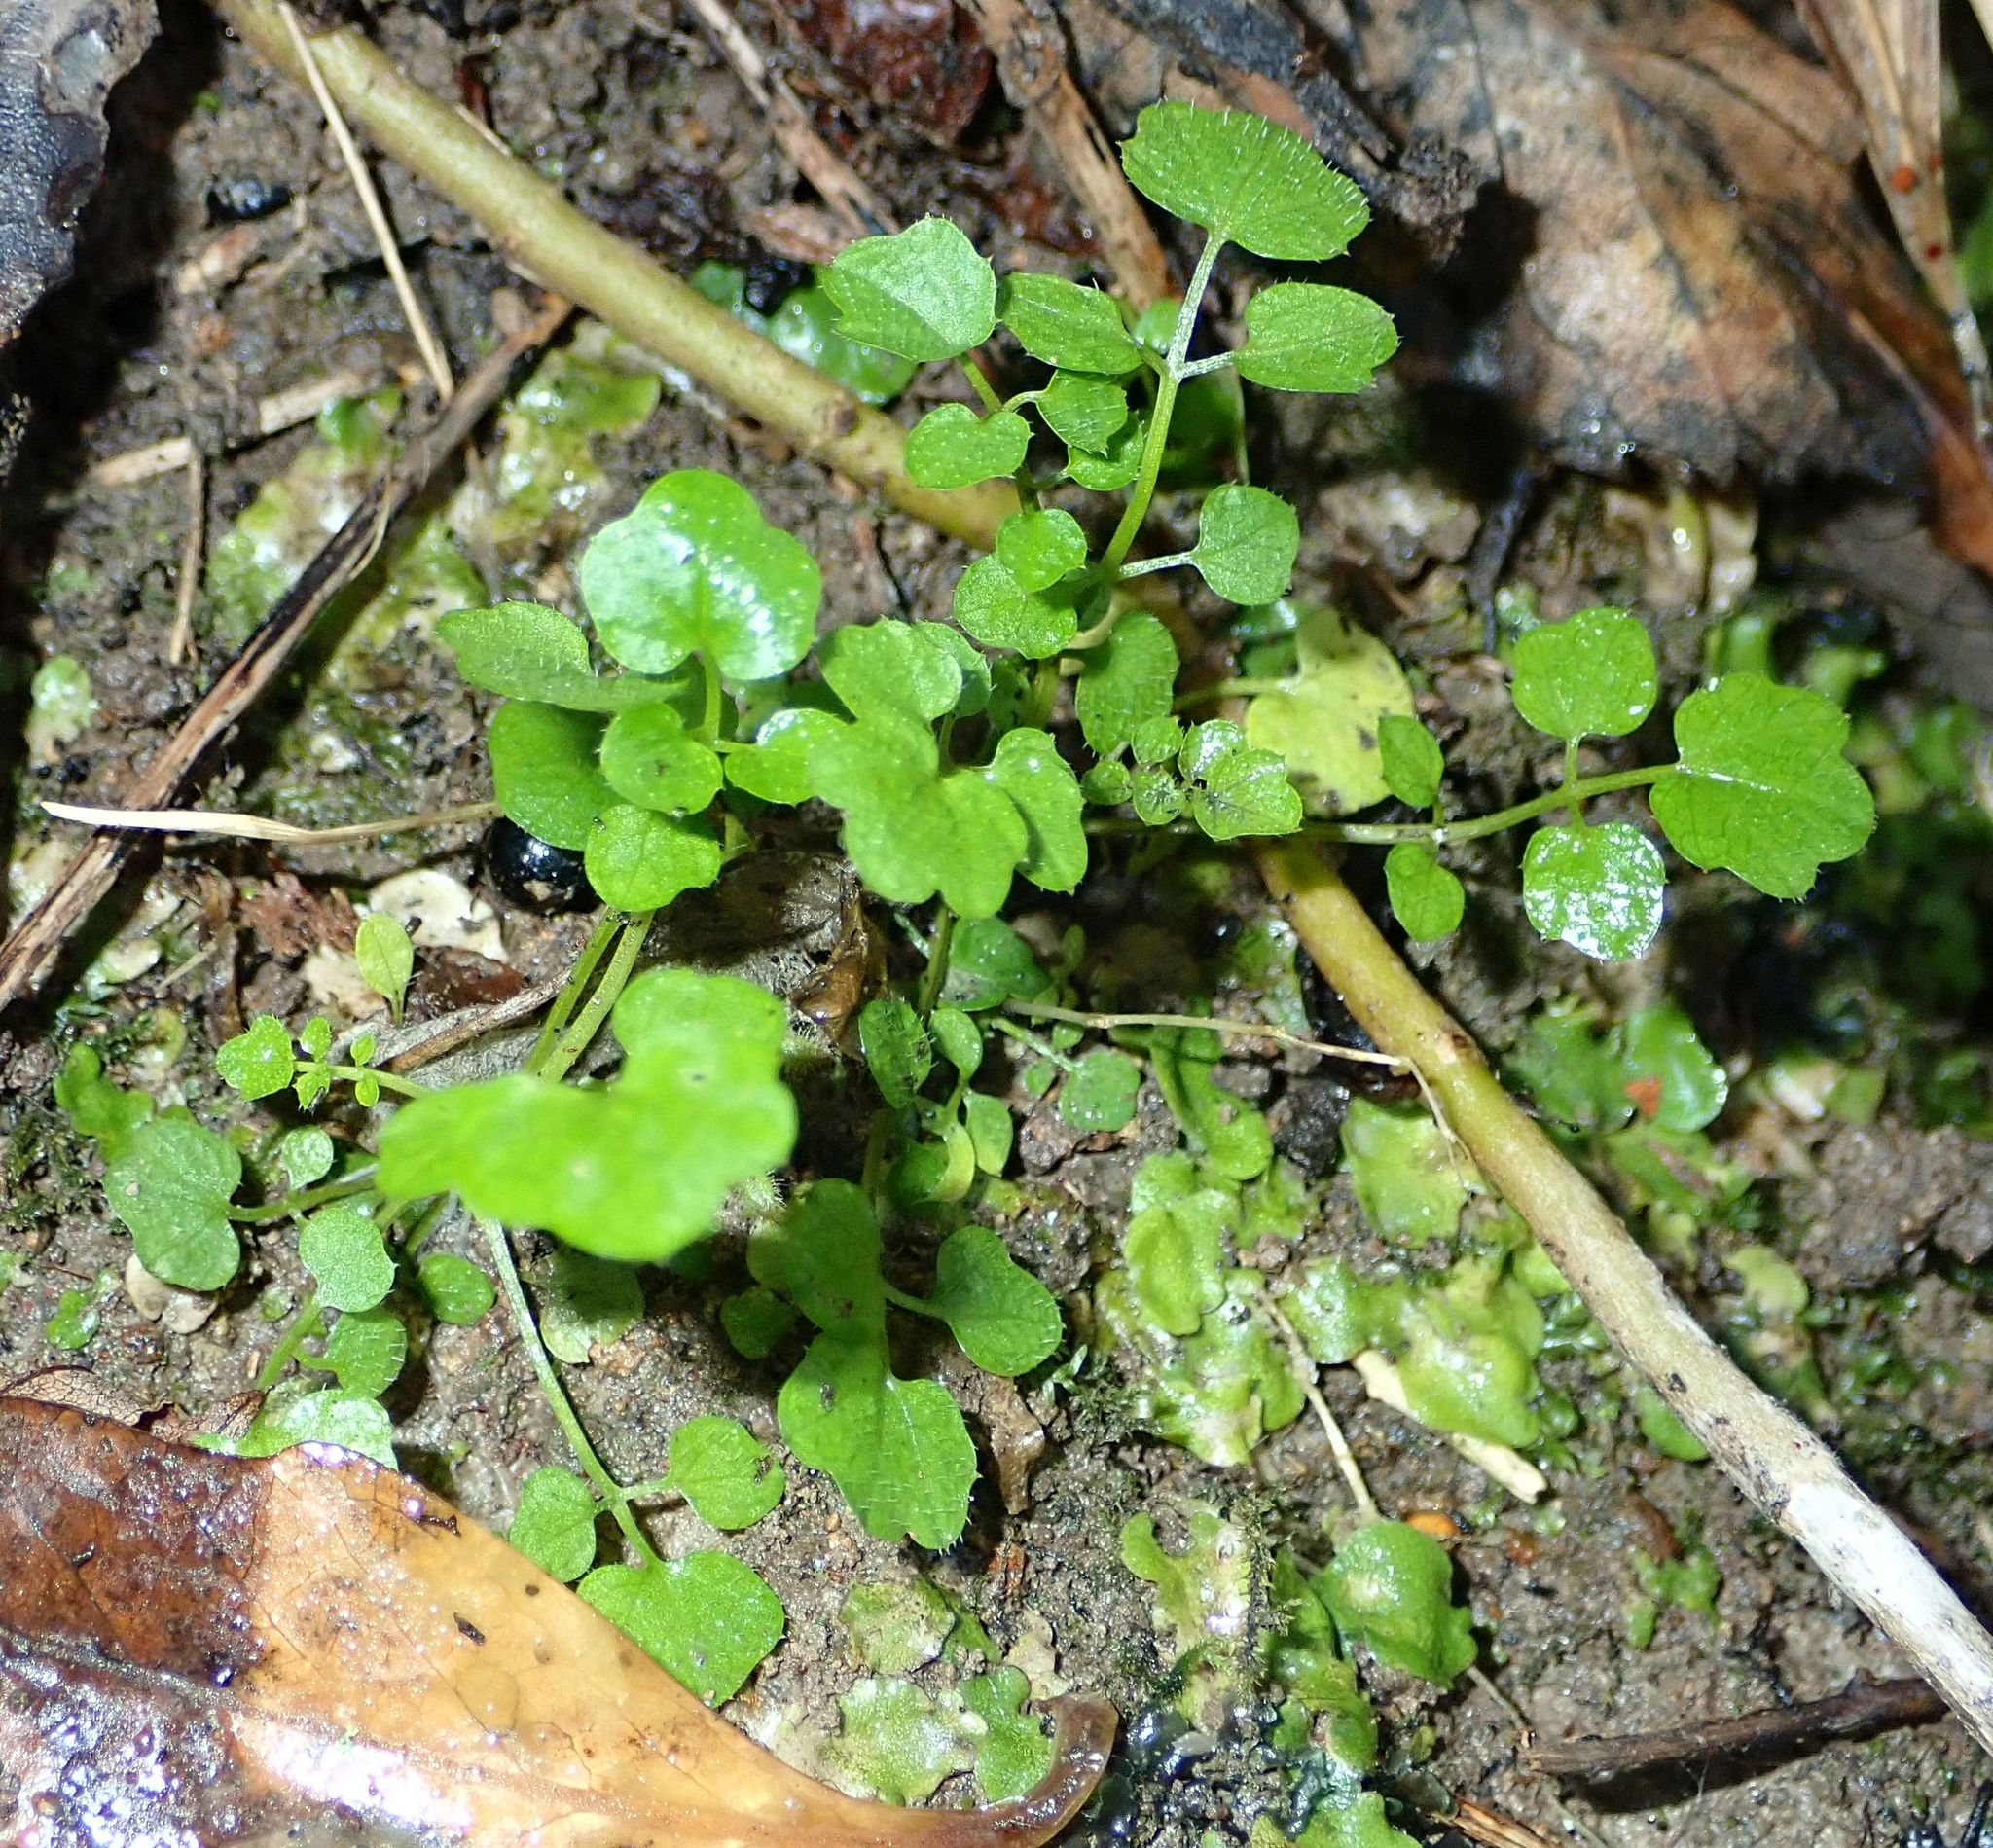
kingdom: Plantae
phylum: Tracheophyta
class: Magnoliopsida
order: Brassicales
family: Brassicaceae
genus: Cardamine
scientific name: Cardamine hirsuta
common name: Hairy bittercress
